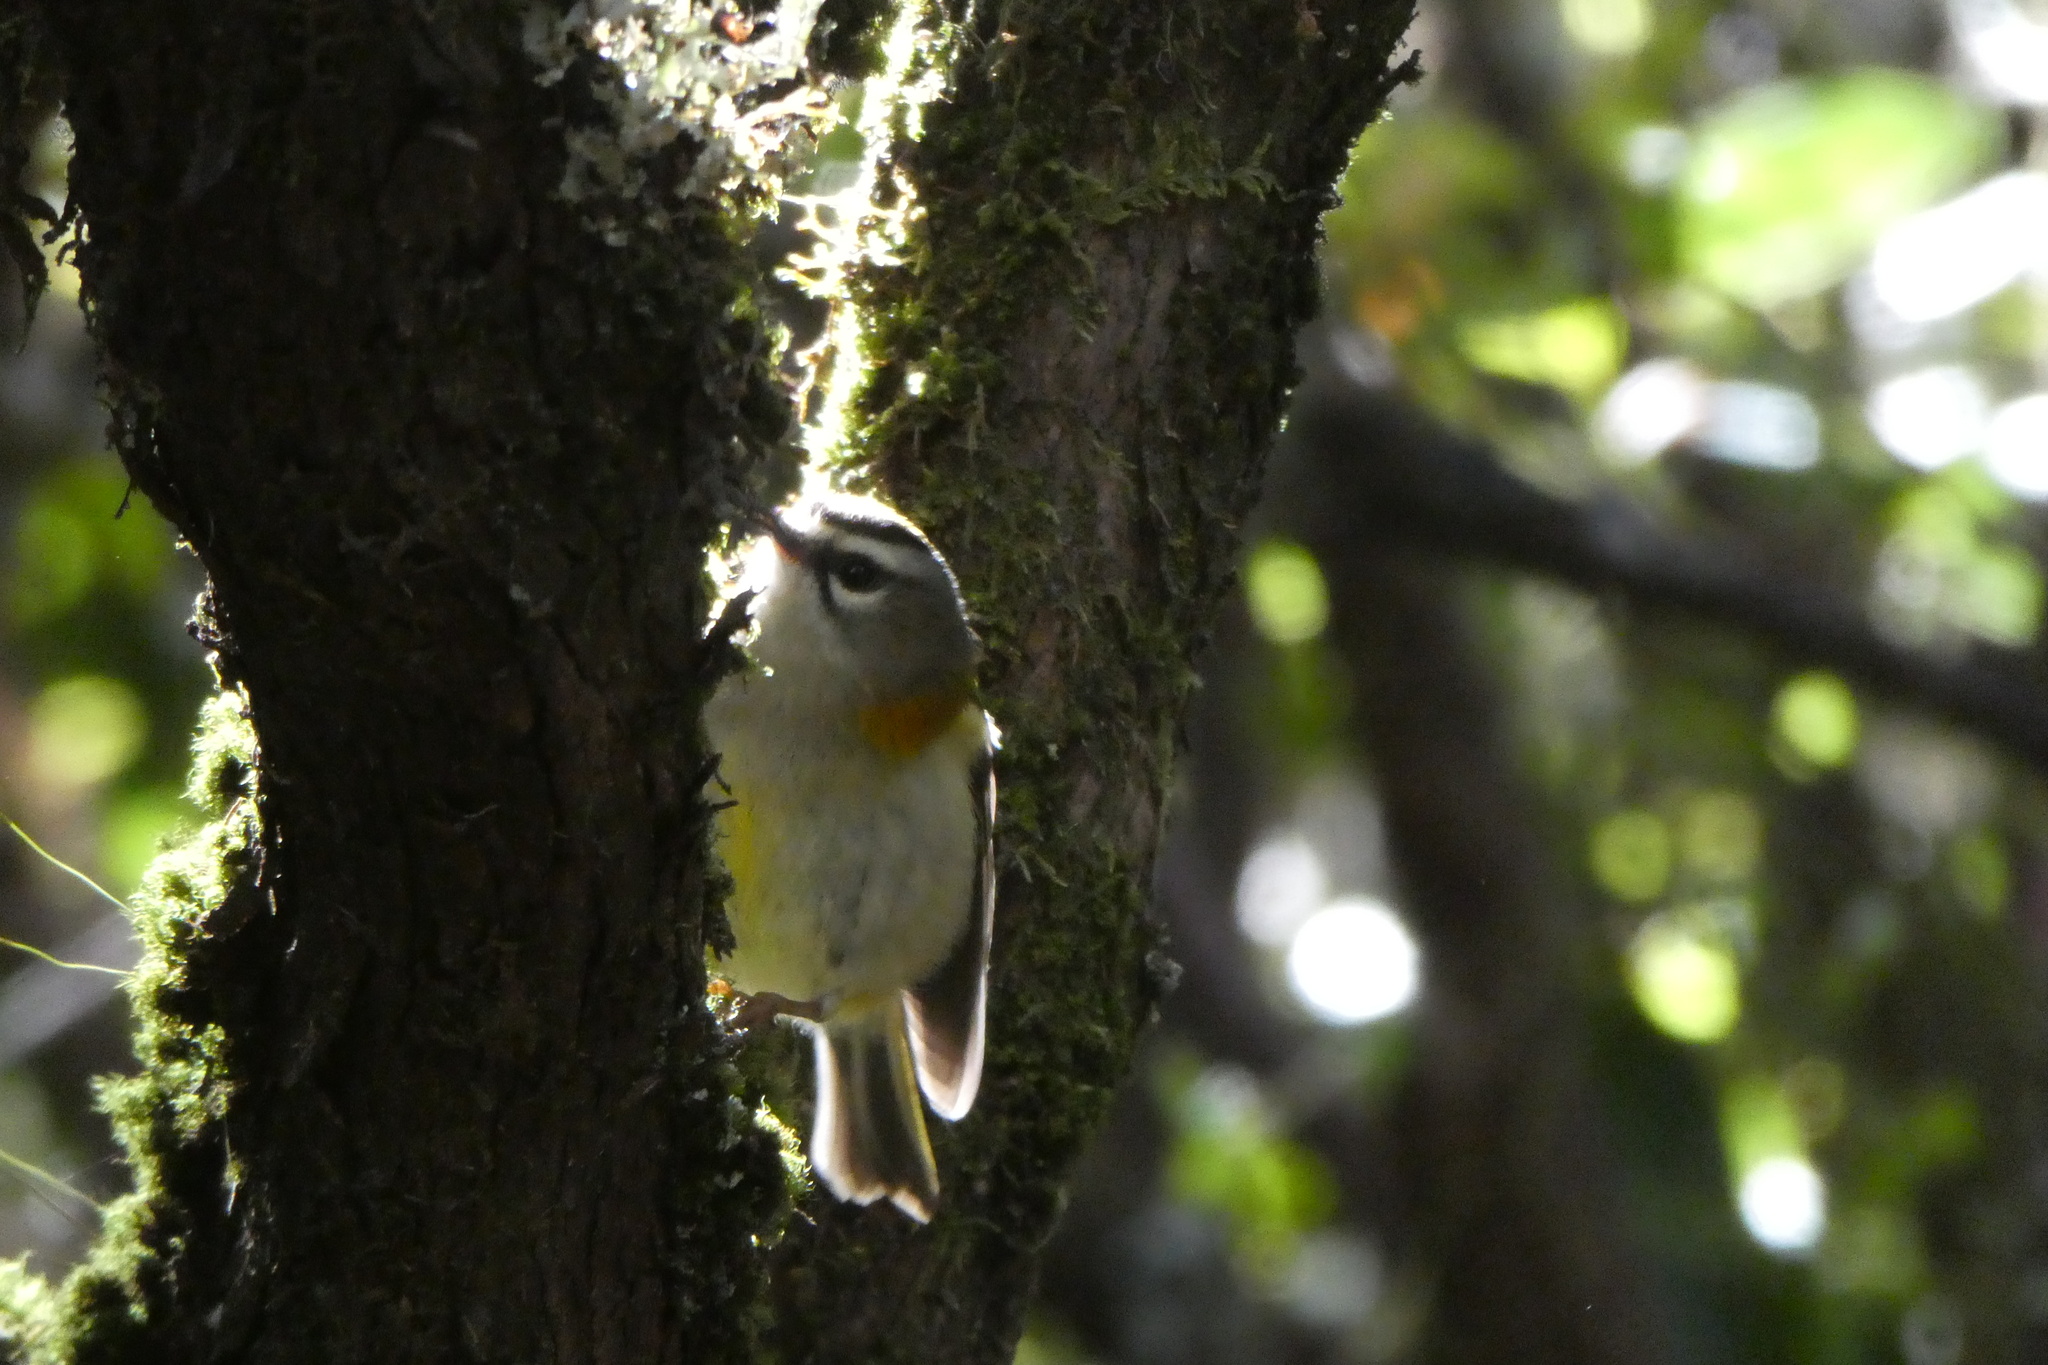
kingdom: Animalia
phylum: Chordata
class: Aves
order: Passeriformes
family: Regulidae
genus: Regulus
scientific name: Regulus madeirensis
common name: Madeira firecrest
